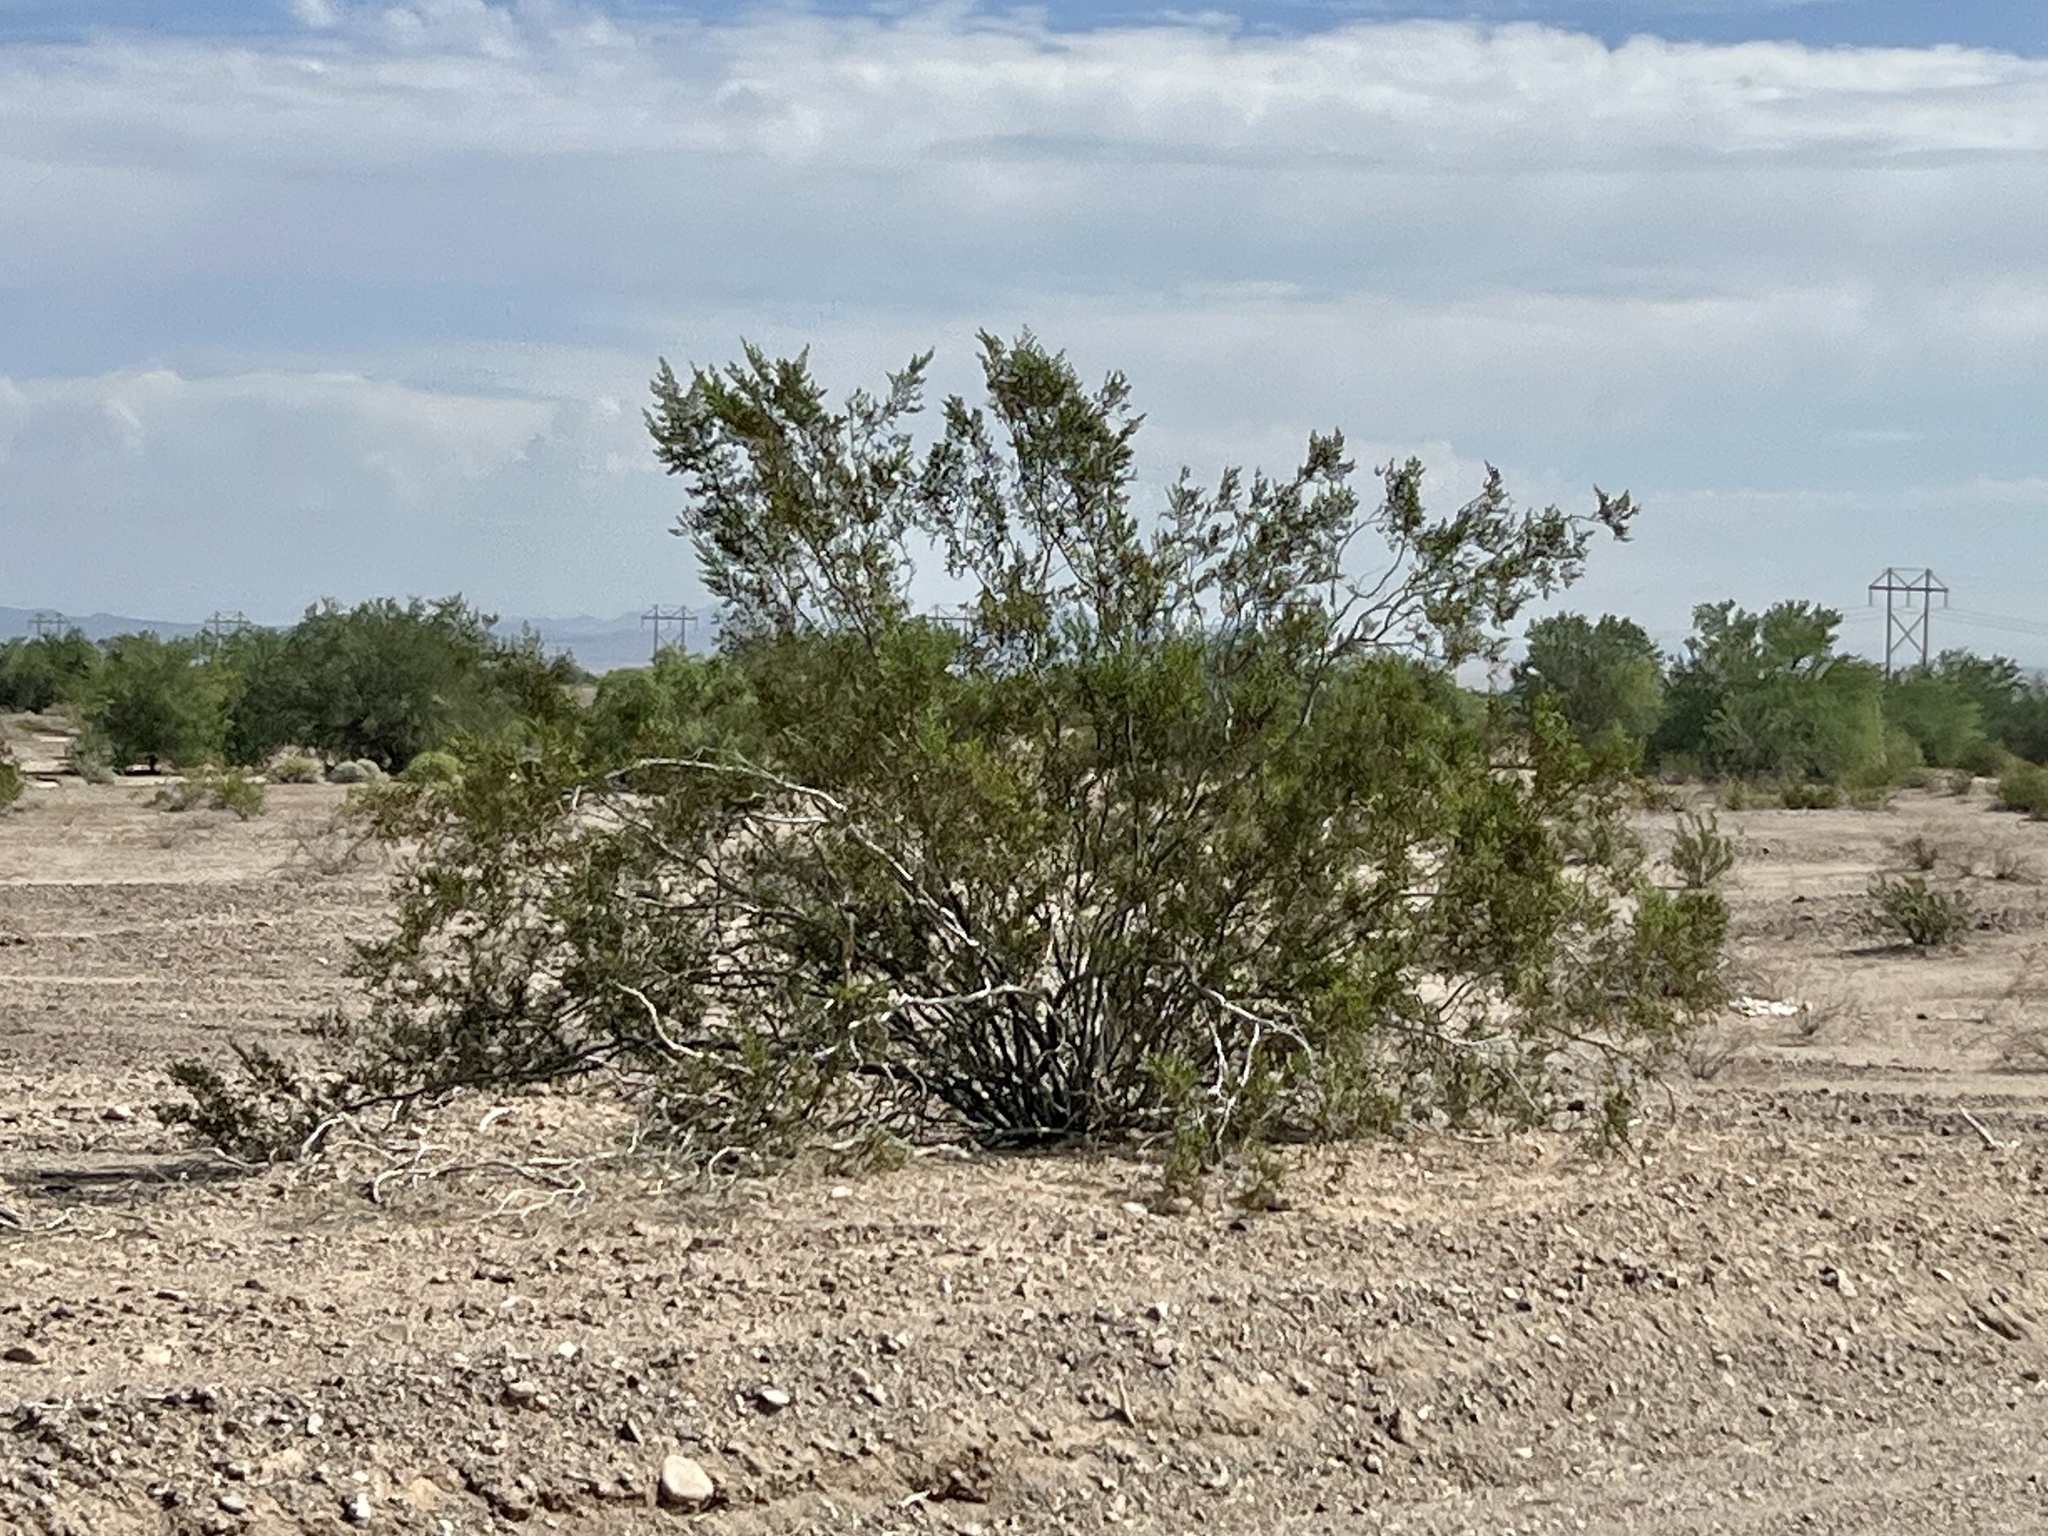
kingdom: Plantae
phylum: Tracheophyta
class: Magnoliopsida
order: Zygophyllales
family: Zygophyllaceae
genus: Larrea
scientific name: Larrea tridentata
